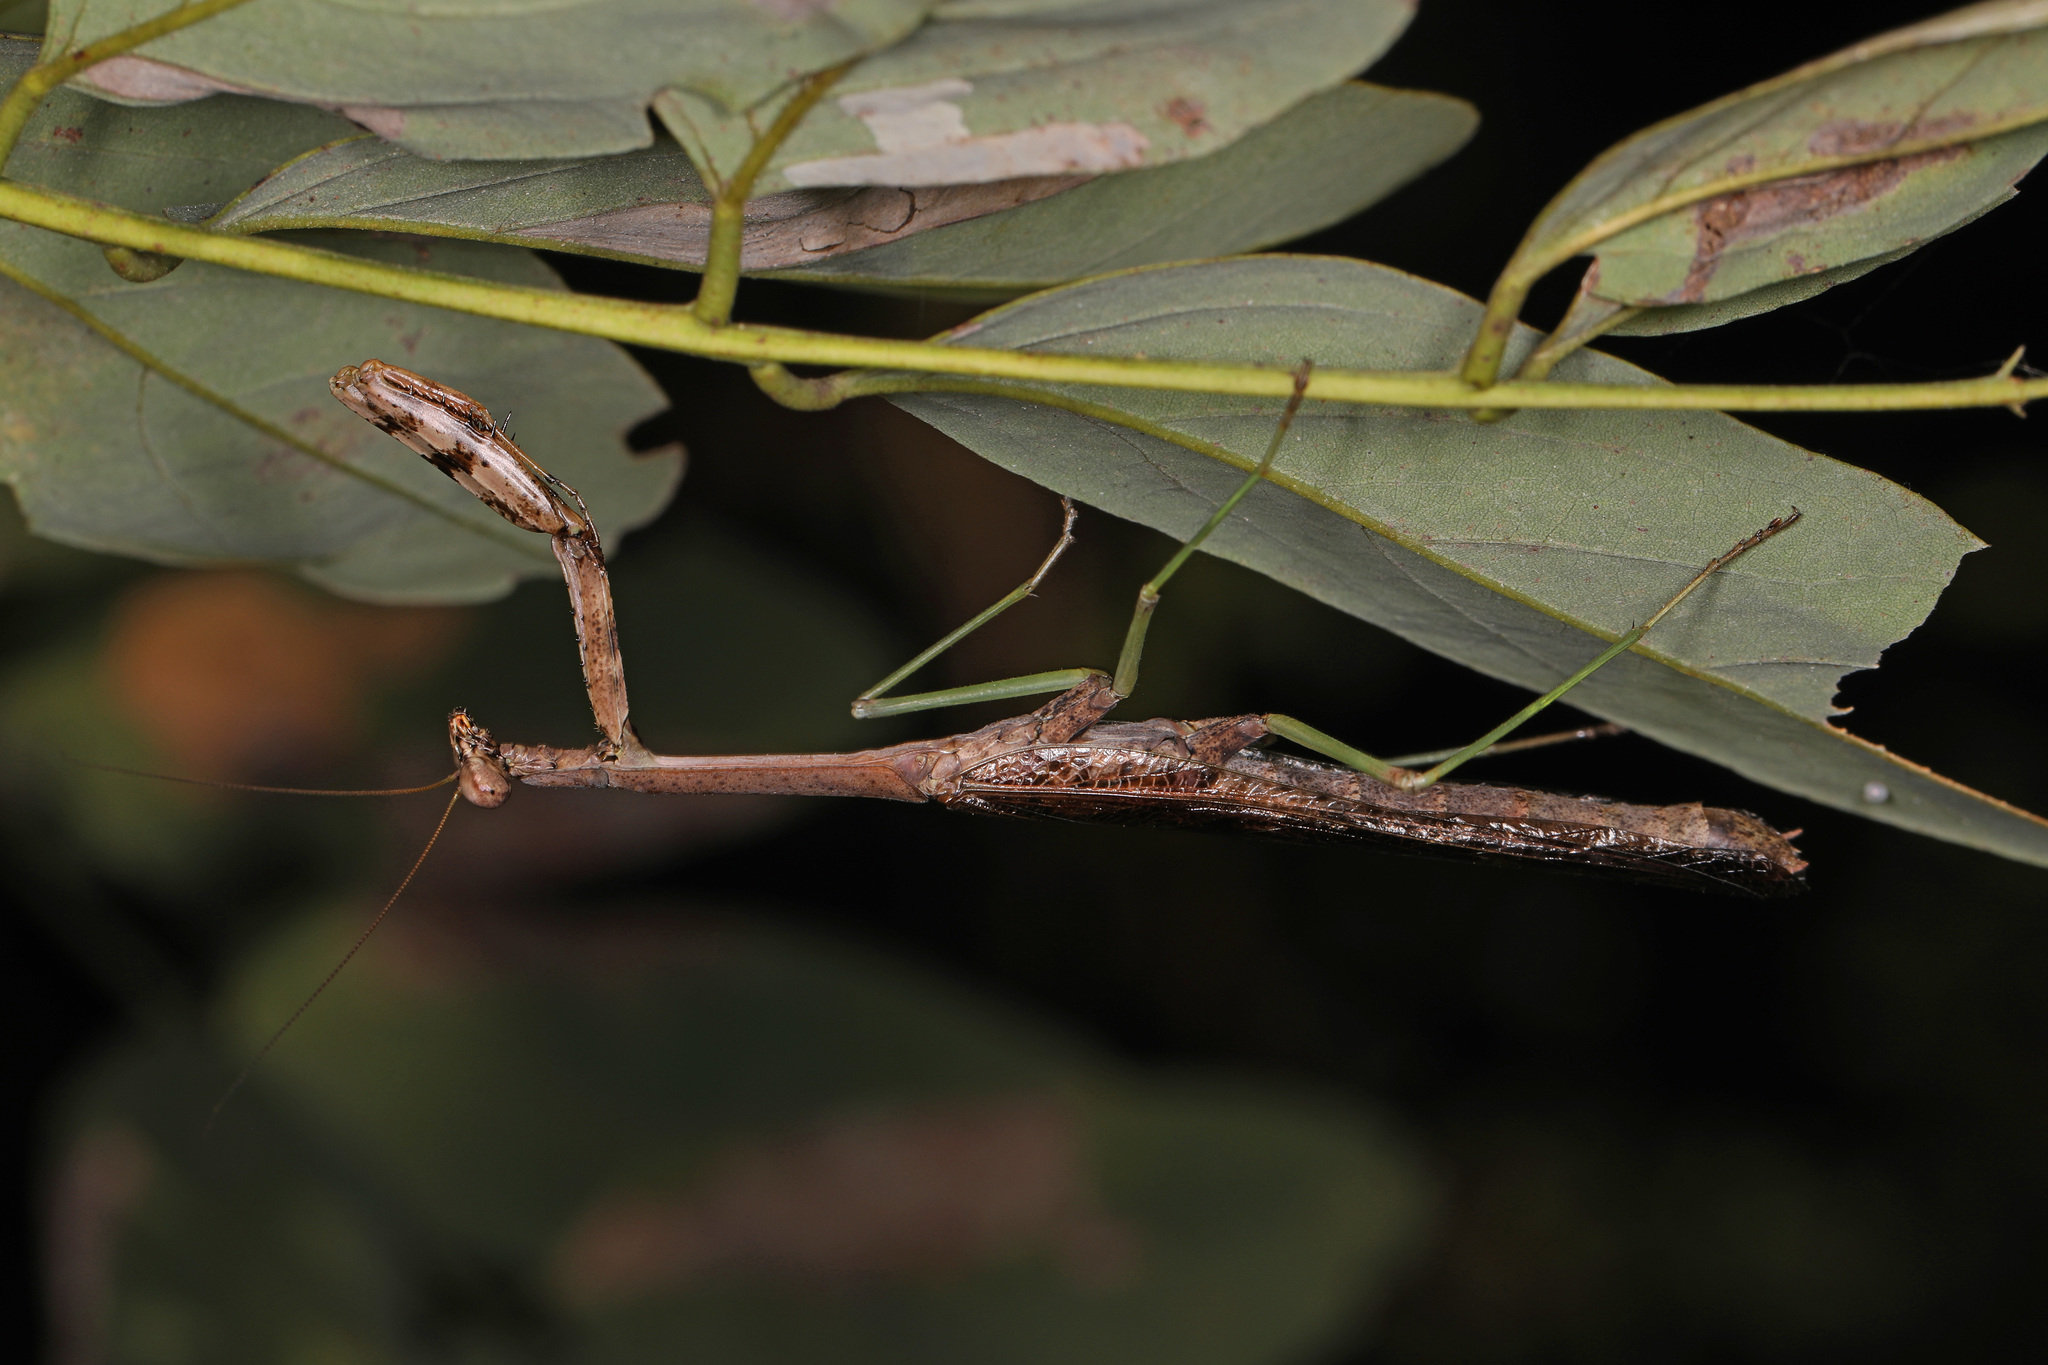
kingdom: Animalia
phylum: Arthropoda
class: Insecta
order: Mantodea
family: Mantidae
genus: Stagmomantis
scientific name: Stagmomantis carolina
